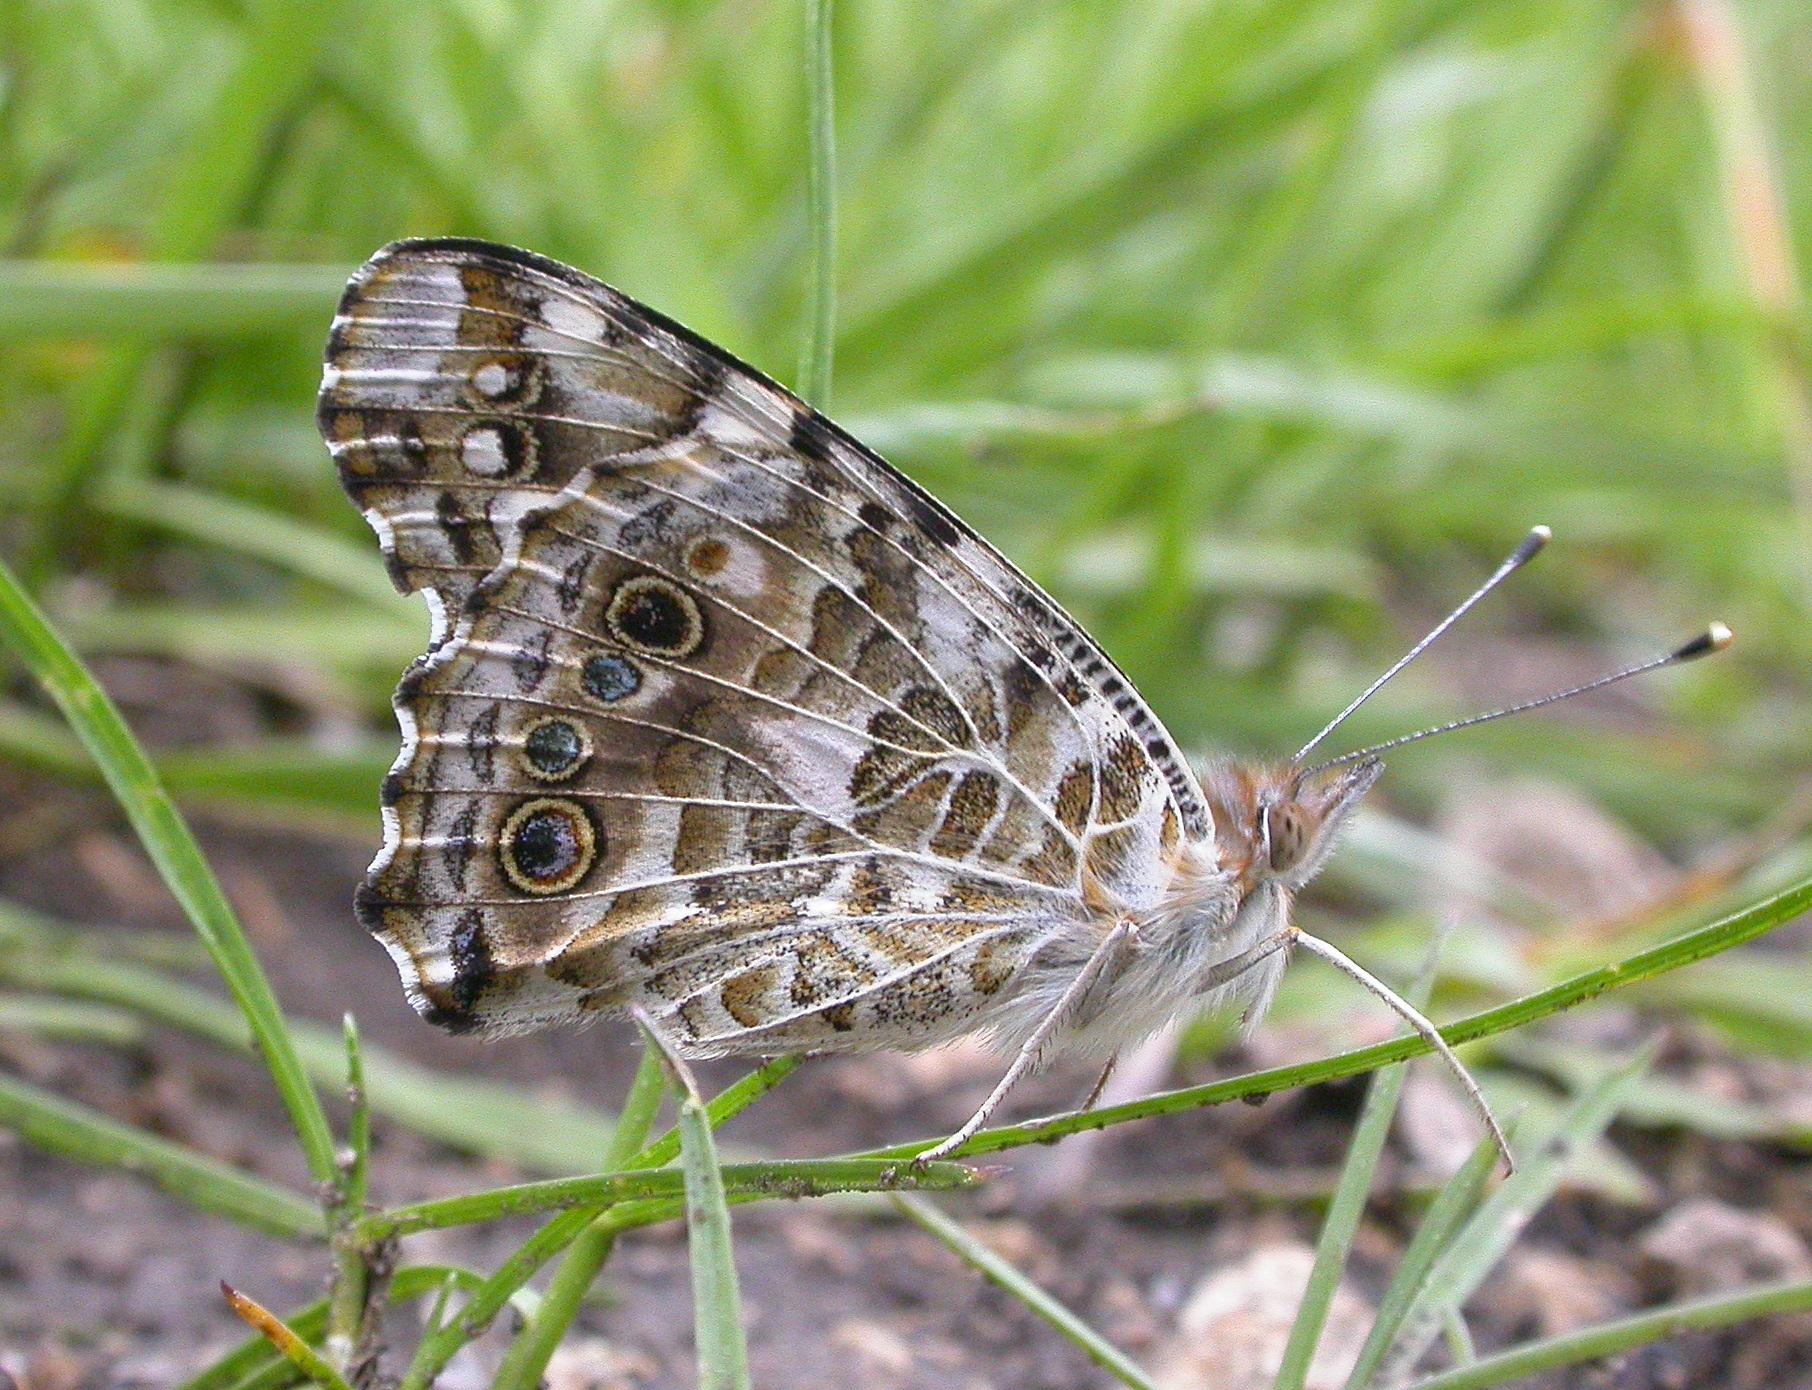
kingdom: Animalia
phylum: Arthropoda
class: Insecta
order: Lepidoptera
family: Nymphalidae
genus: Vanessa
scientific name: Vanessa cardui
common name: Painted lady
